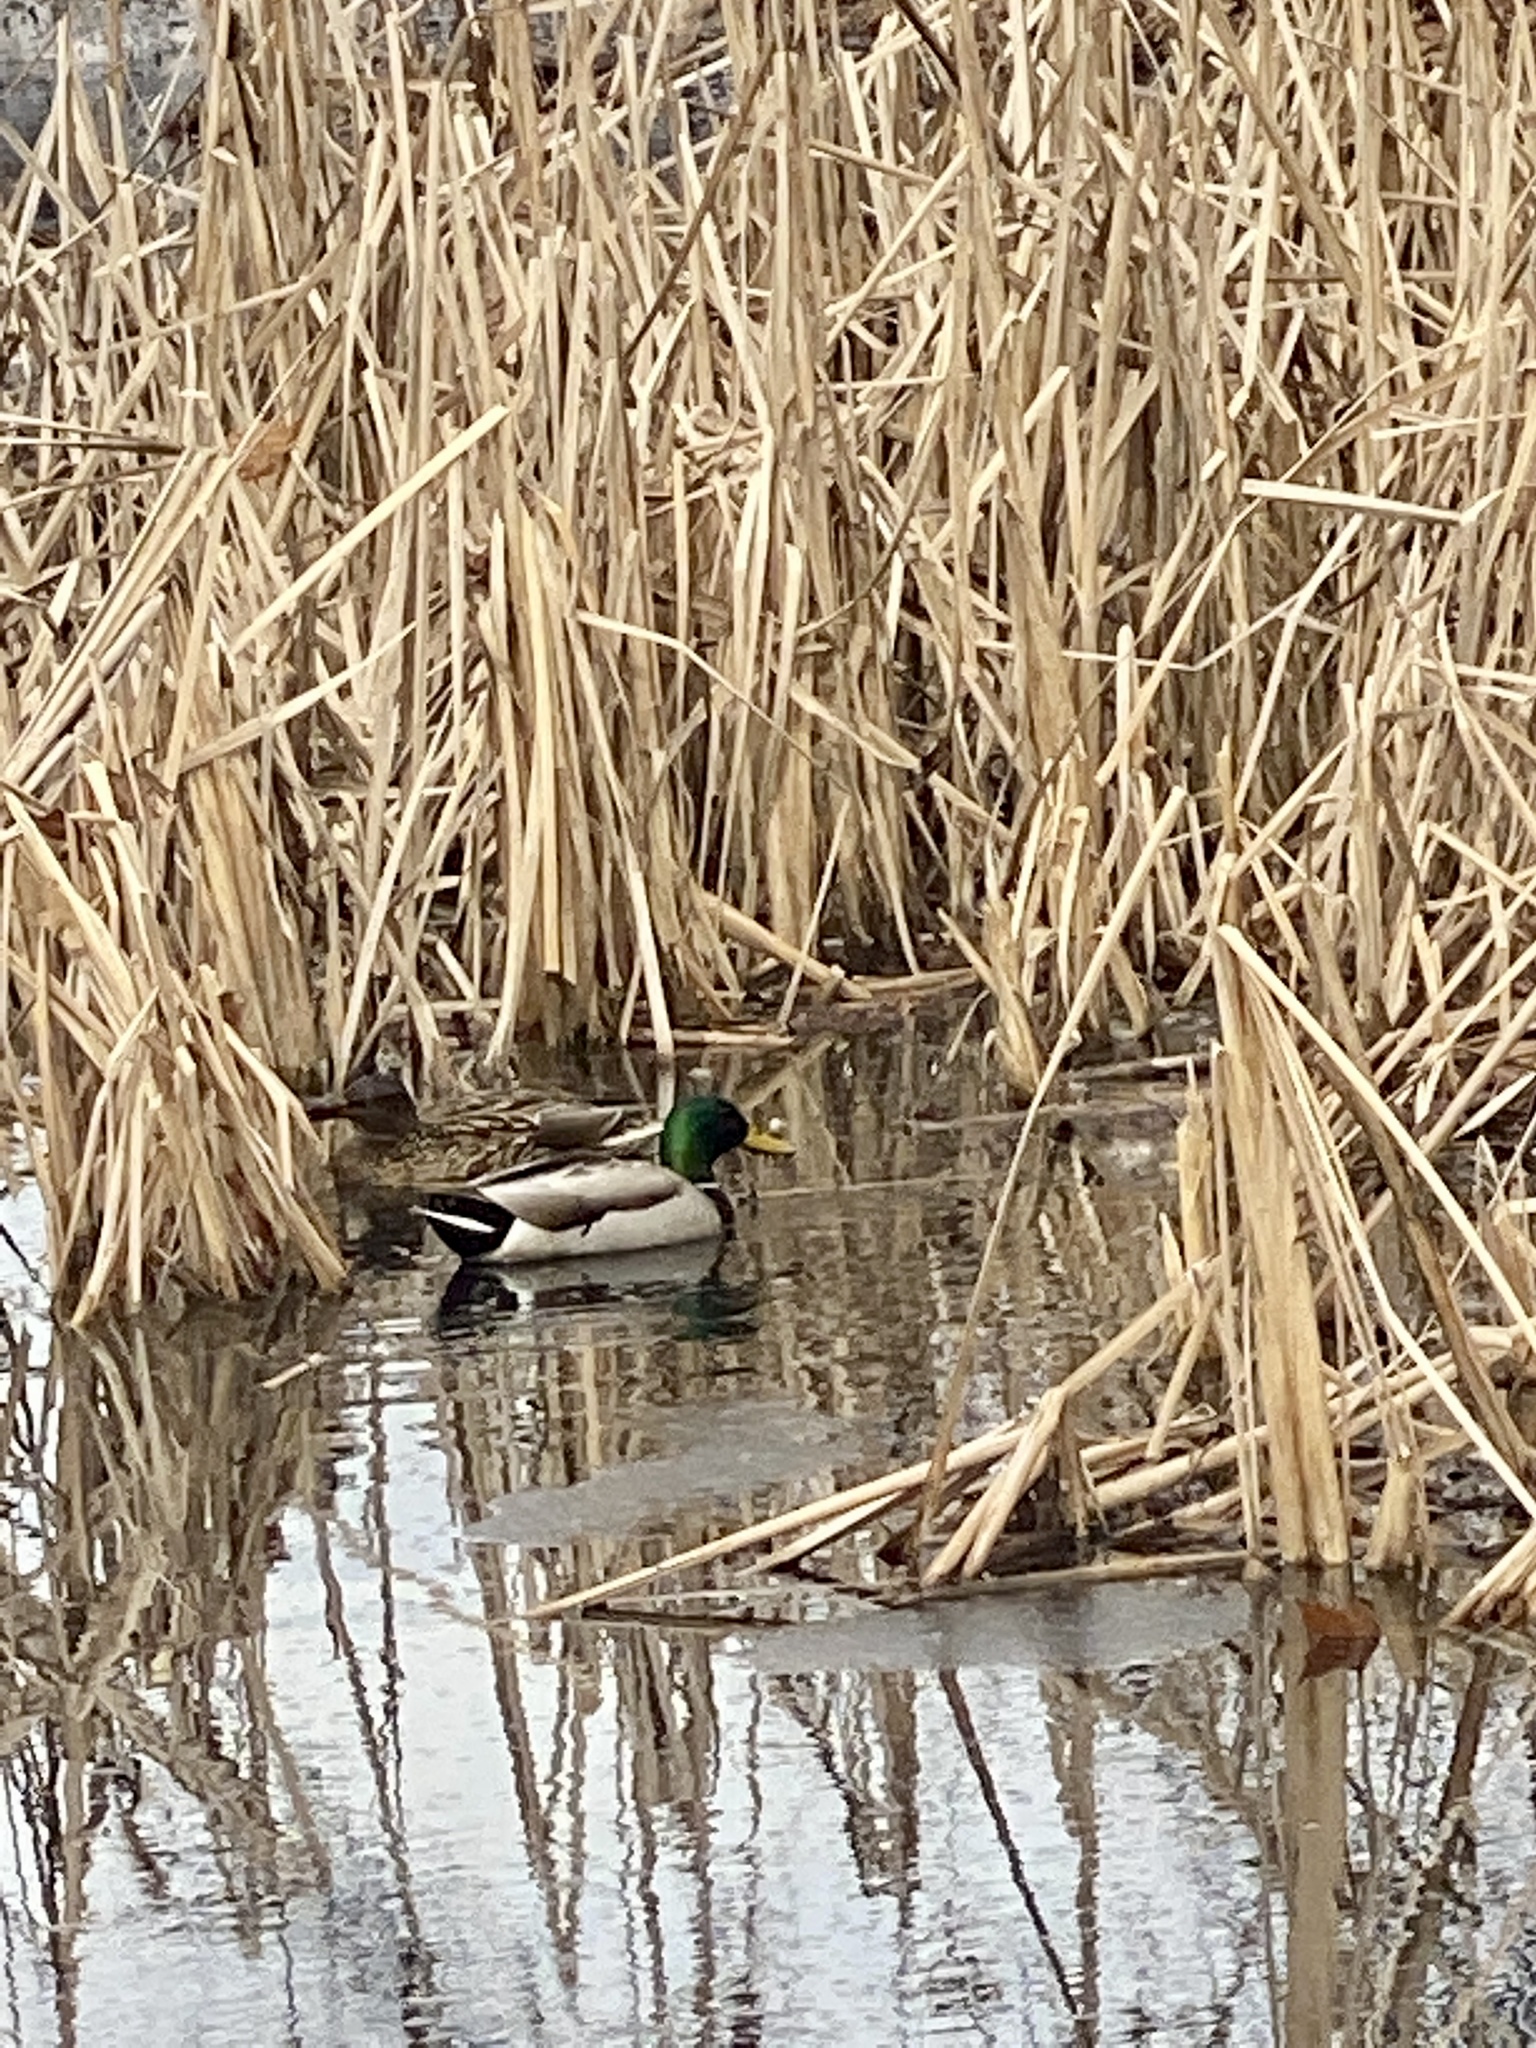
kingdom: Animalia
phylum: Chordata
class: Aves
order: Anseriformes
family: Anatidae
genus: Anas
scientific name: Anas platyrhynchos
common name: Mallard
